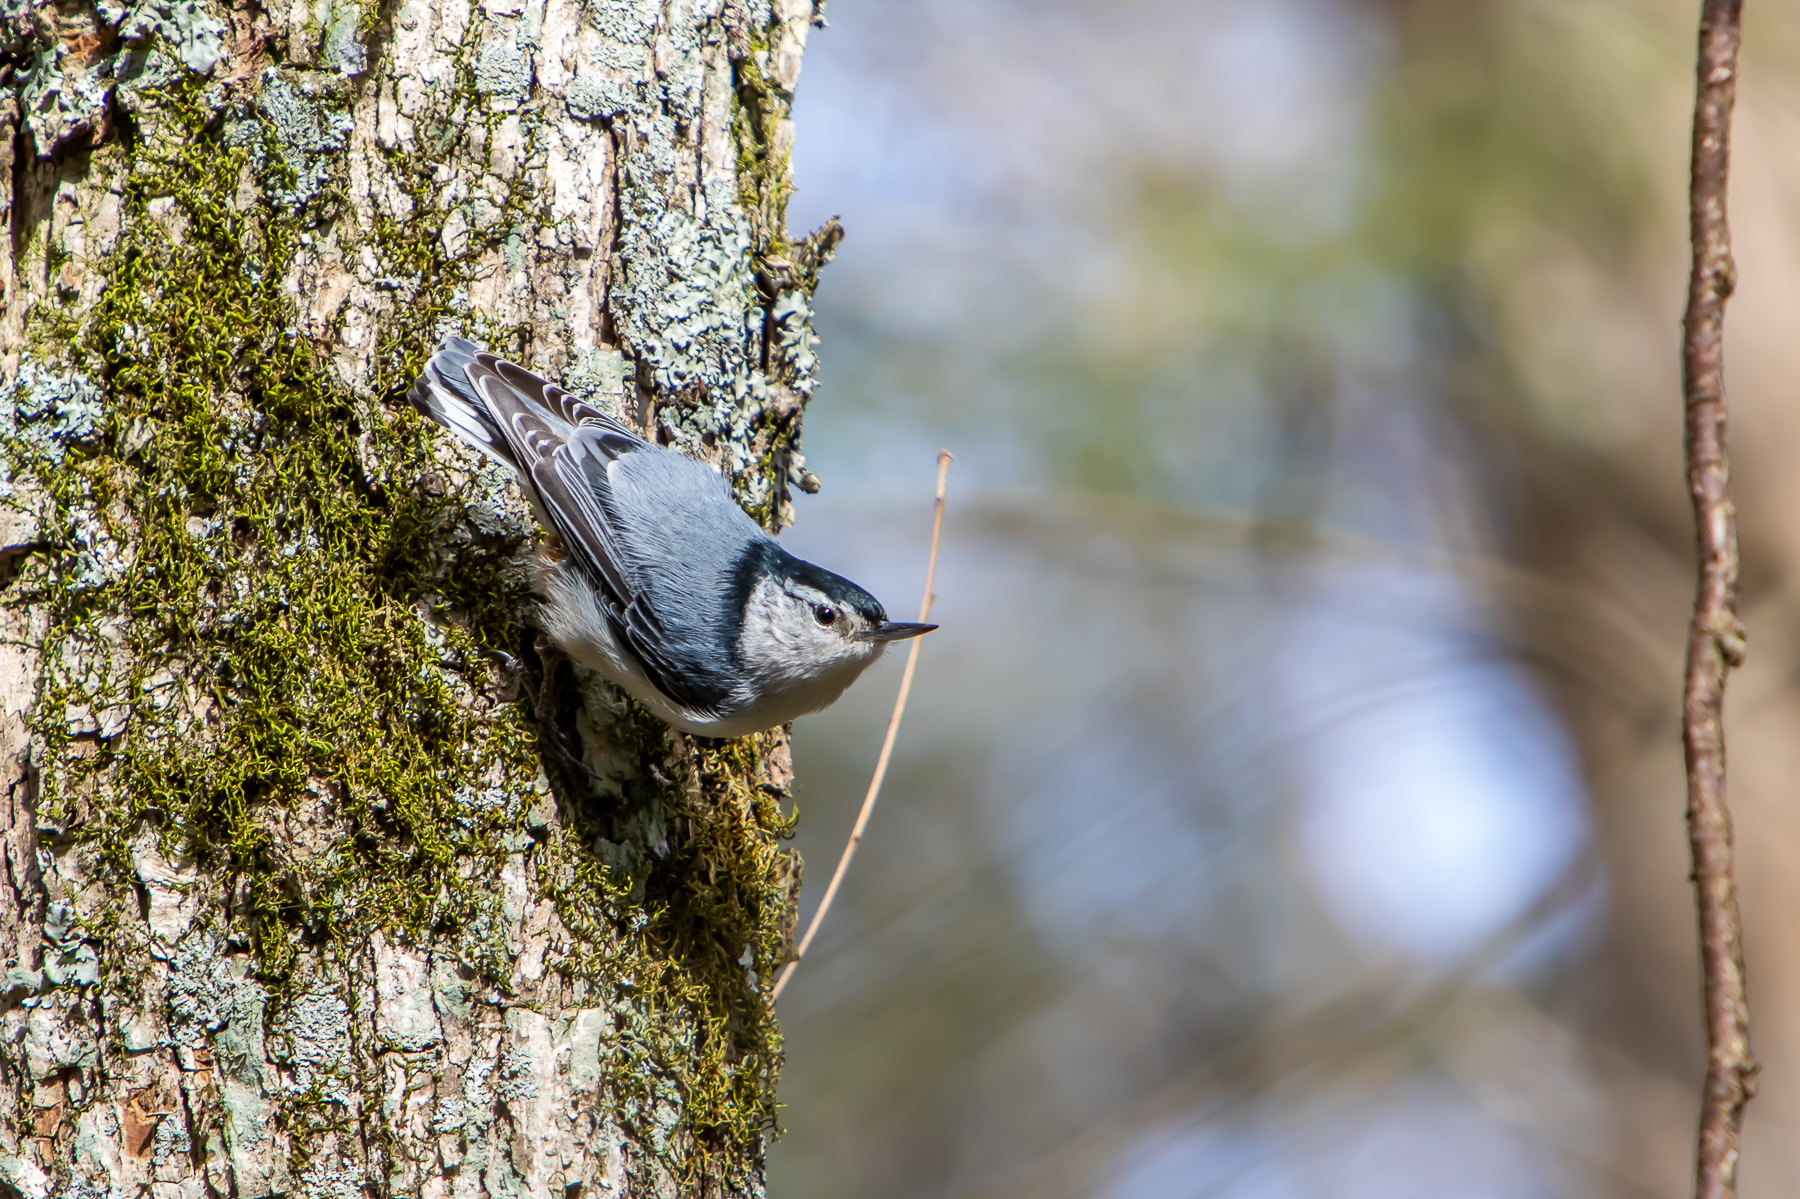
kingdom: Animalia
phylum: Chordata
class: Aves
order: Passeriformes
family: Sittidae
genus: Sitta
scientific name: Sitta carolinensis
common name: White-breasted nuthatch
